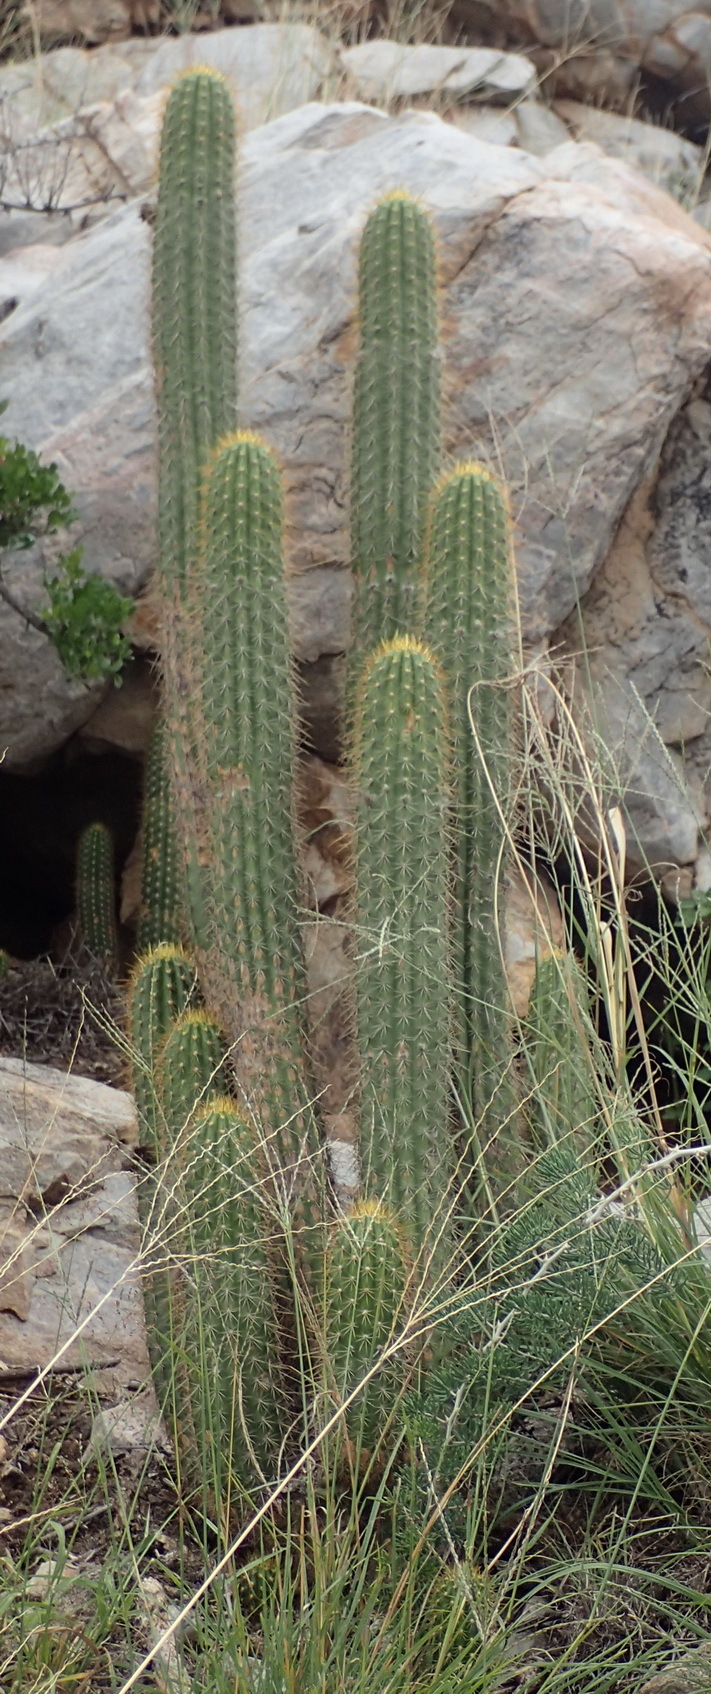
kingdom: Plantae
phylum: Tracheophyta
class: Magnoliopsida
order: Caryophyllales
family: Cactaceae
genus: Soehrensia
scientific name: Soehrensia spachiana
